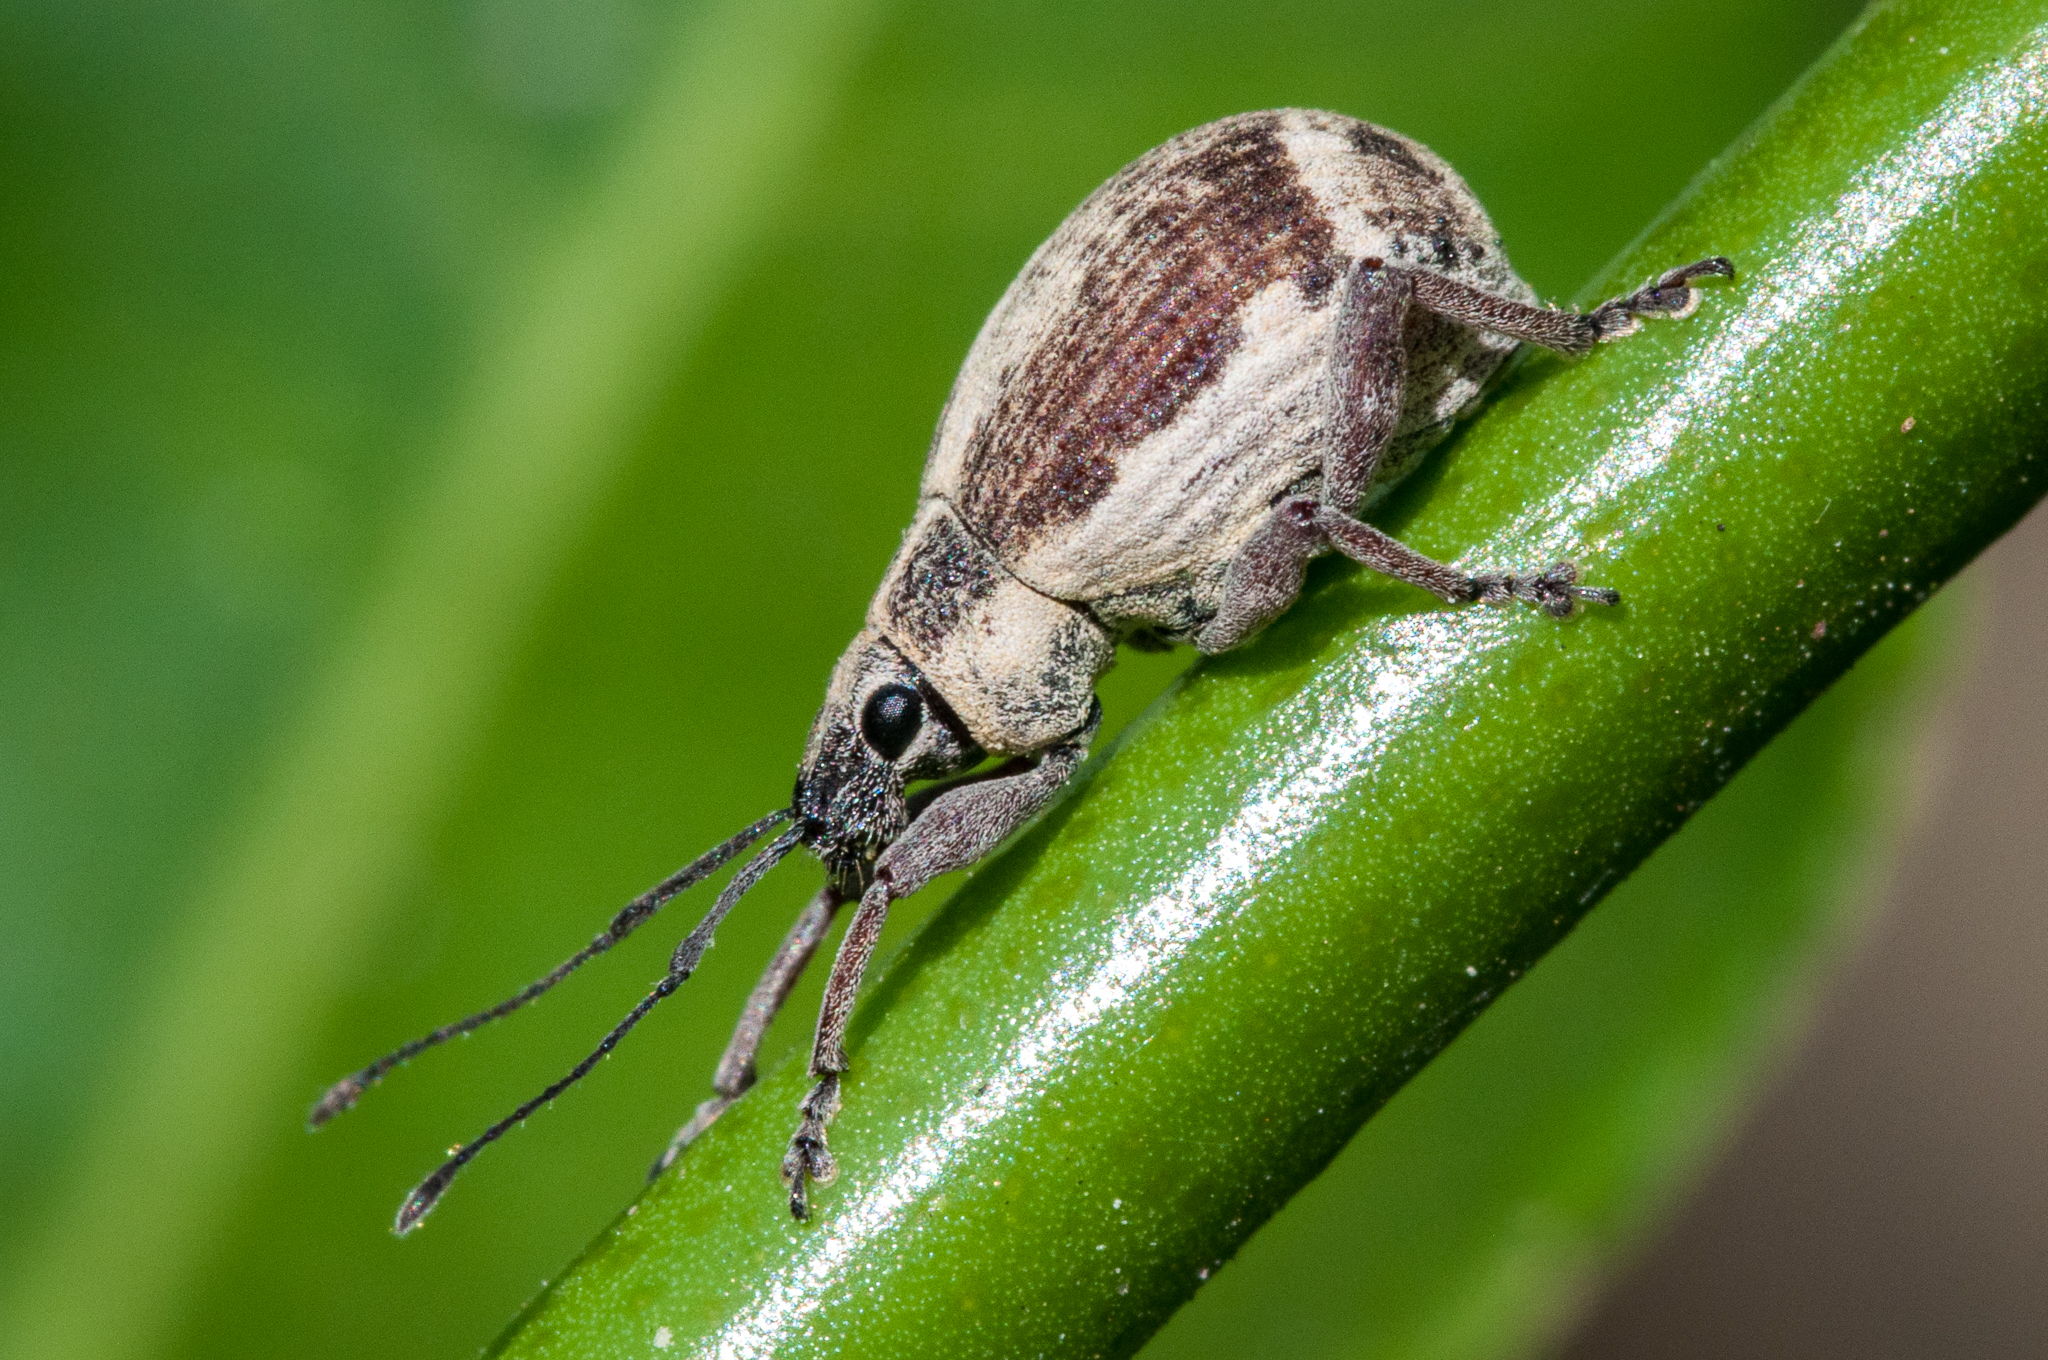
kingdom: Animalia
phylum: Arthropoda
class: Insecta
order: Coleoptera
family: Curculionidae
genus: Sciobius
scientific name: Sciobius pullus
